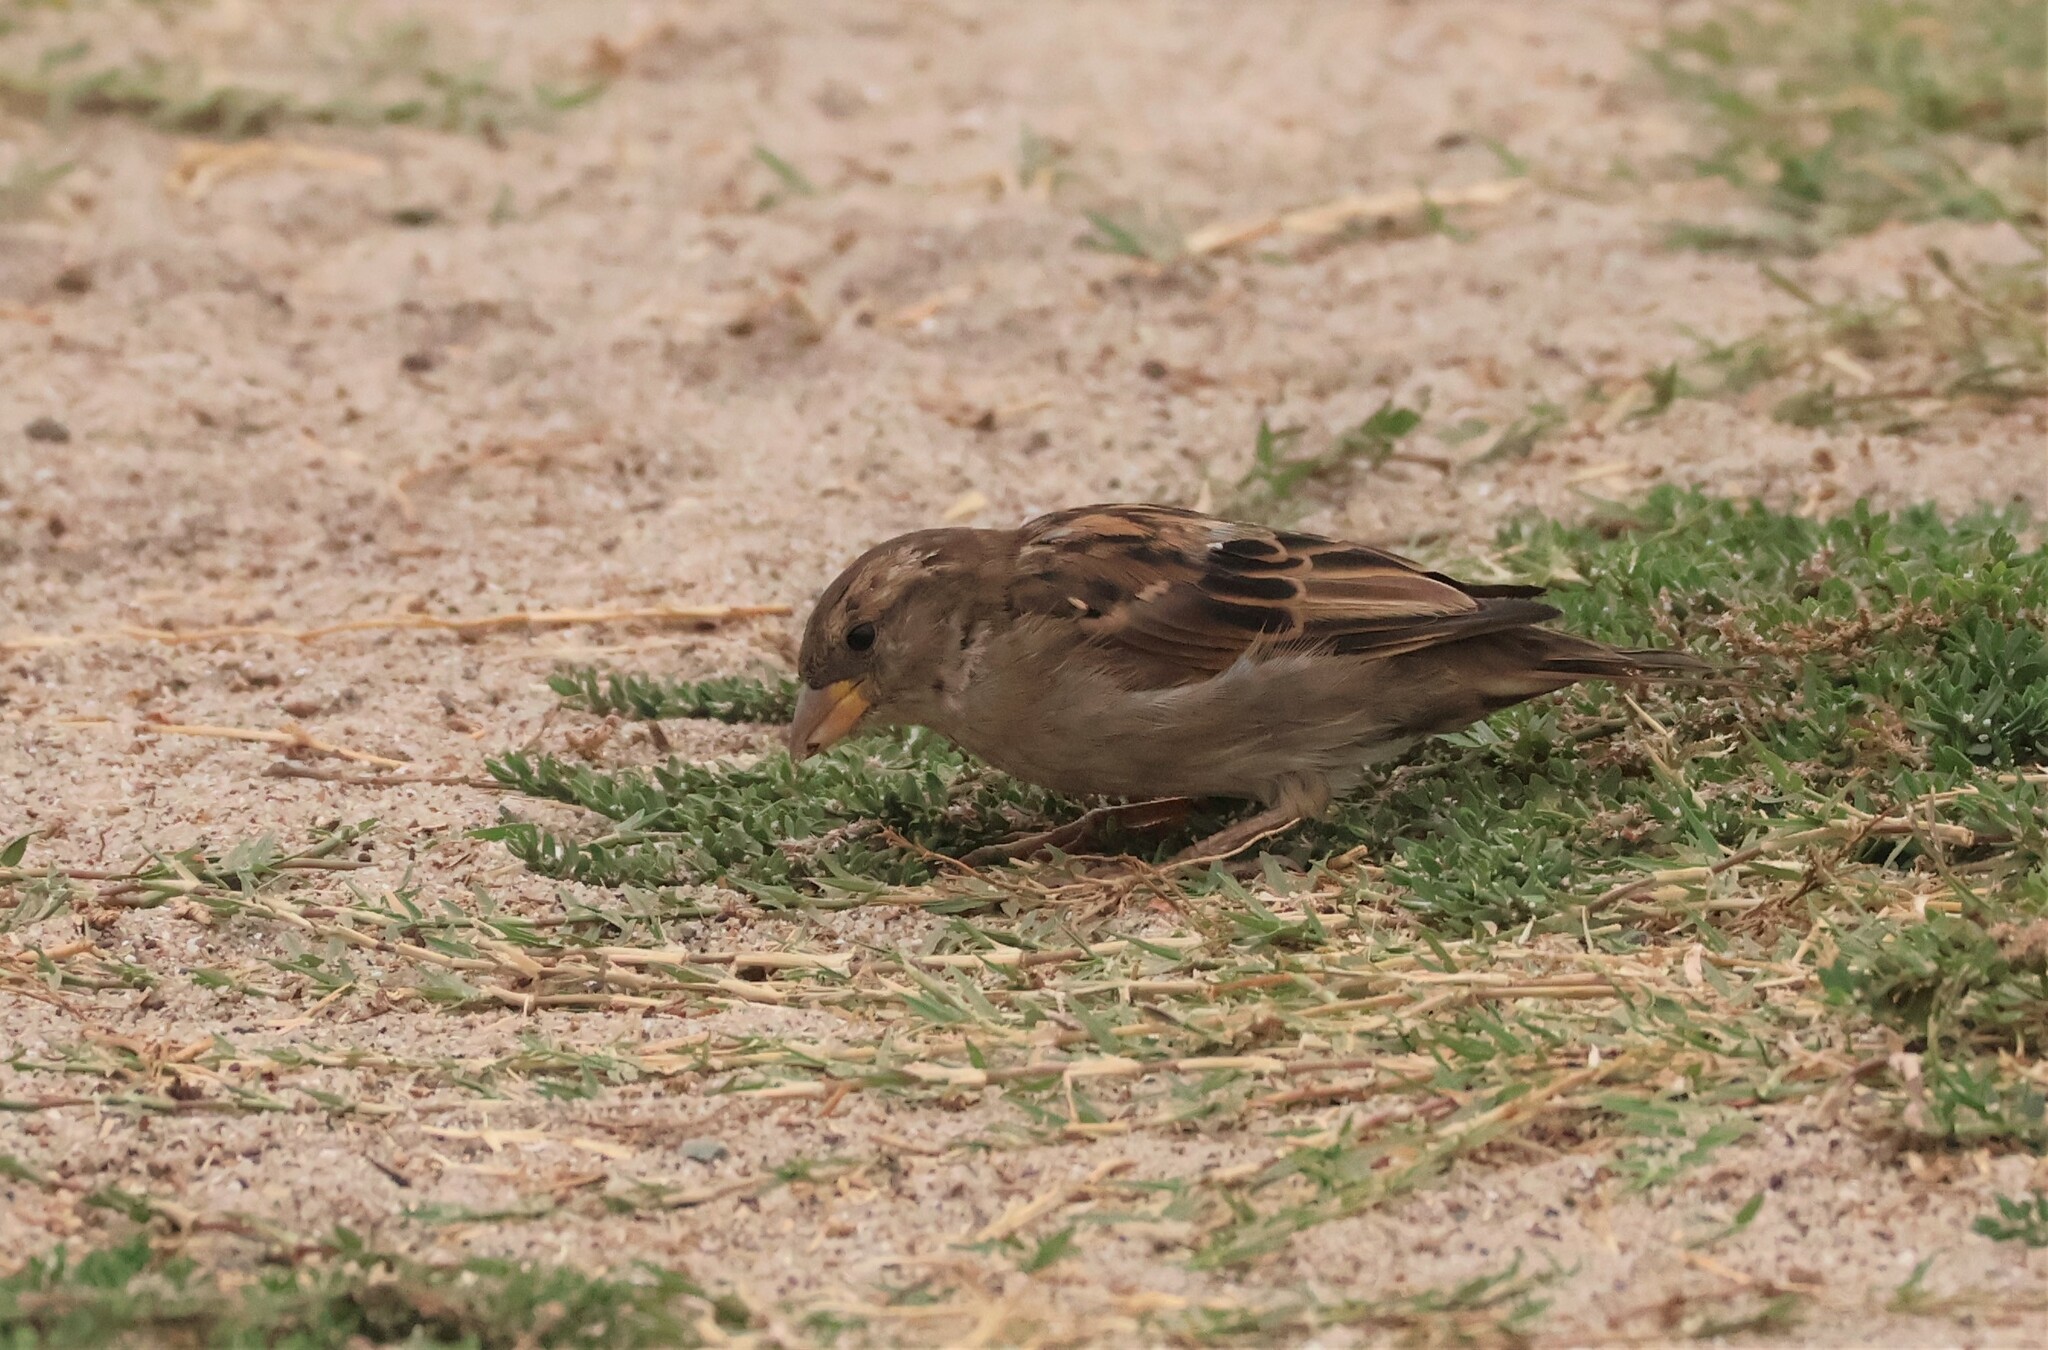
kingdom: Animalia
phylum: Chordata
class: Aves
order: Passeriformes
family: Passeridae
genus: Passer
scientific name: Passer domesticus
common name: House sparrow
